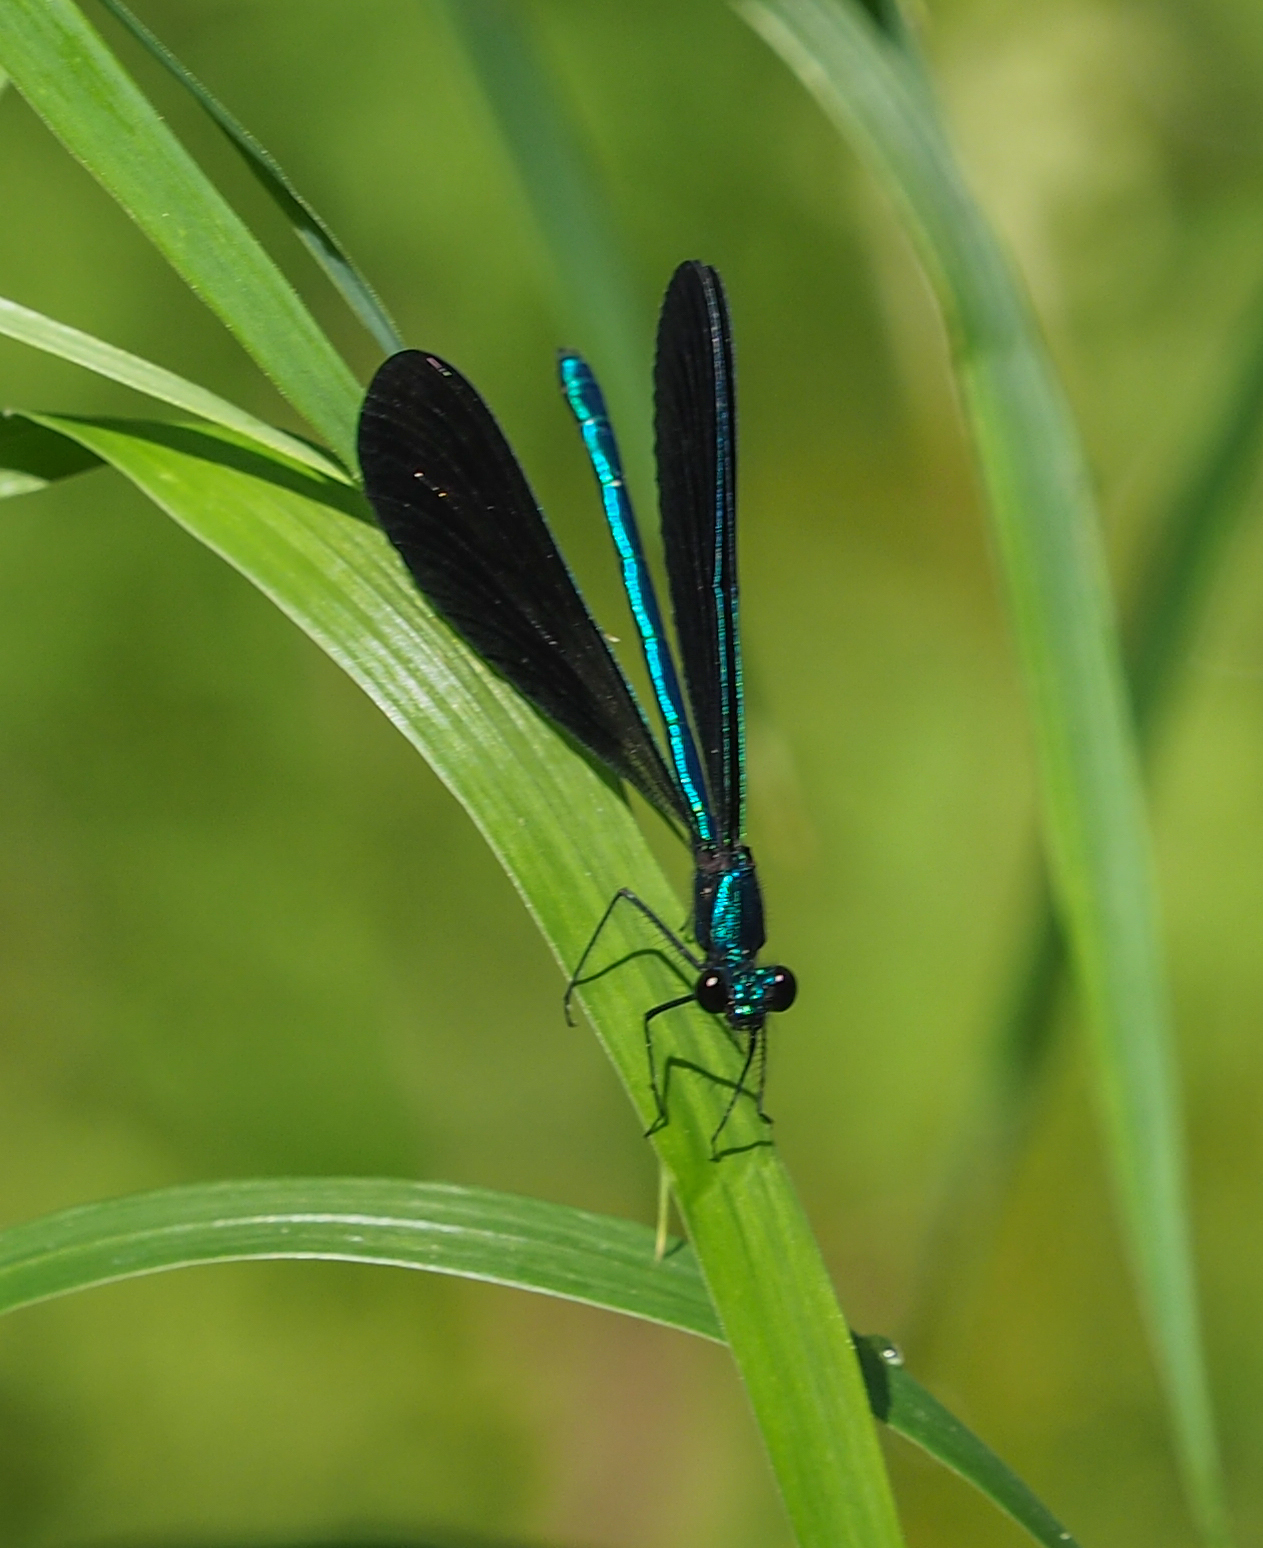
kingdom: Animalia
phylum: Arthropoda
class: Insecta
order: Odonata
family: Calopterygidae
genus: Calopteryx
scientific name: Calopteryx maculata
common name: Ebony jewelwing
